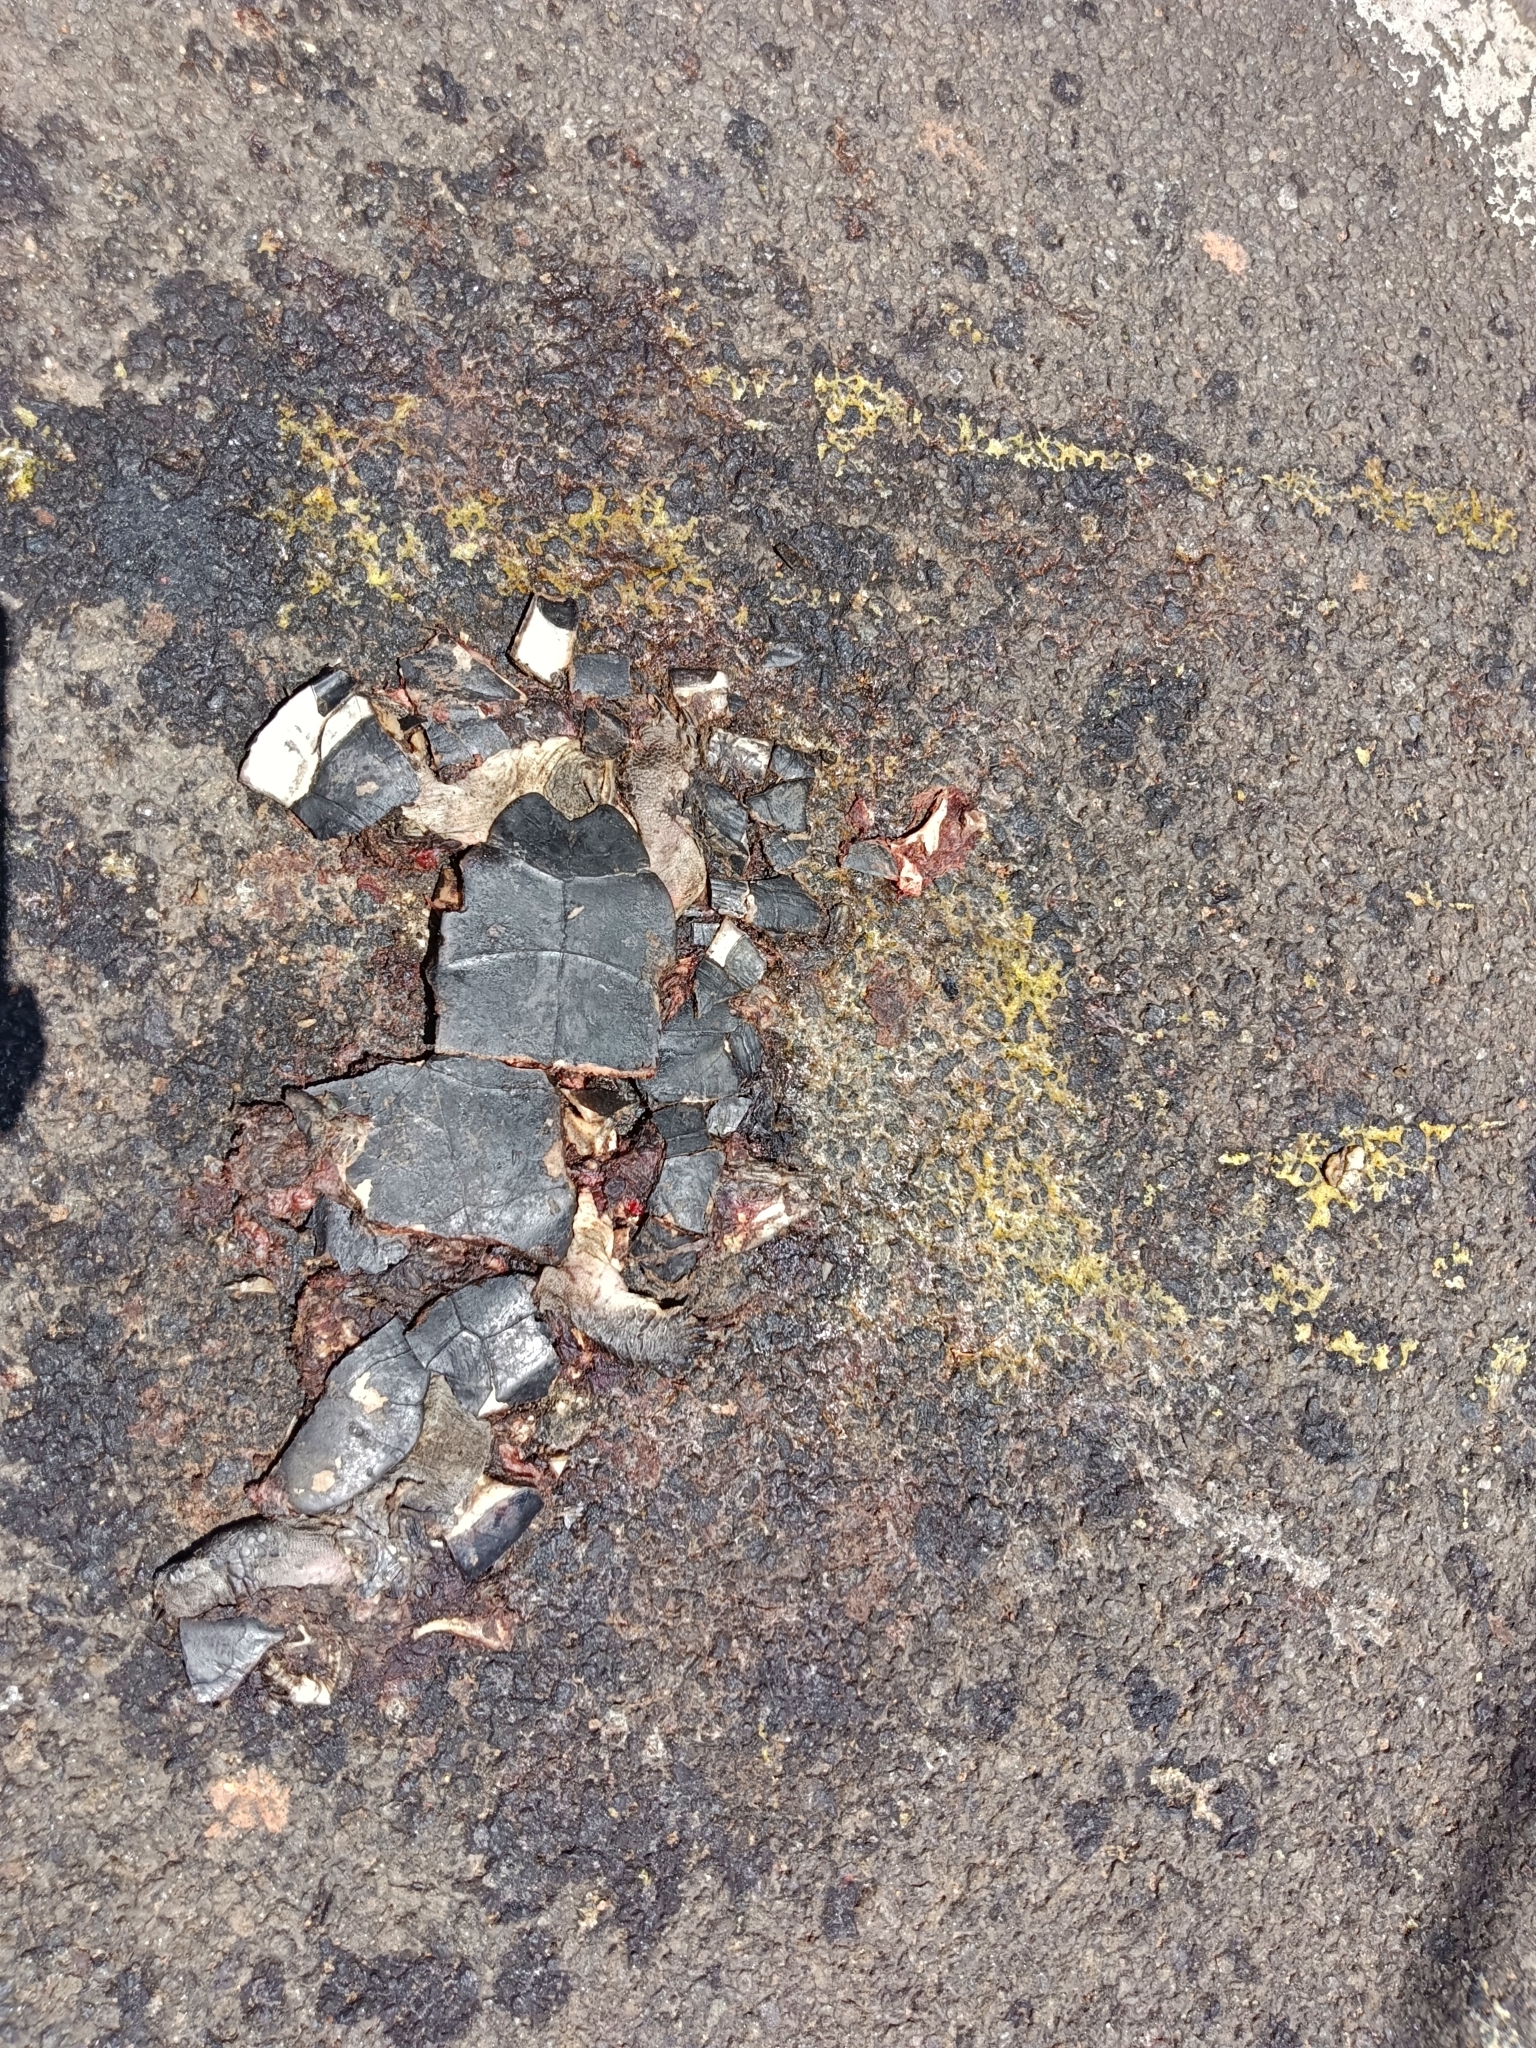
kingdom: Animalia
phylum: Chordata
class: Testudines
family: Geoemydidae
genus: Melanochelys
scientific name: Melanochelys trijuga
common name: Indian black turtle
